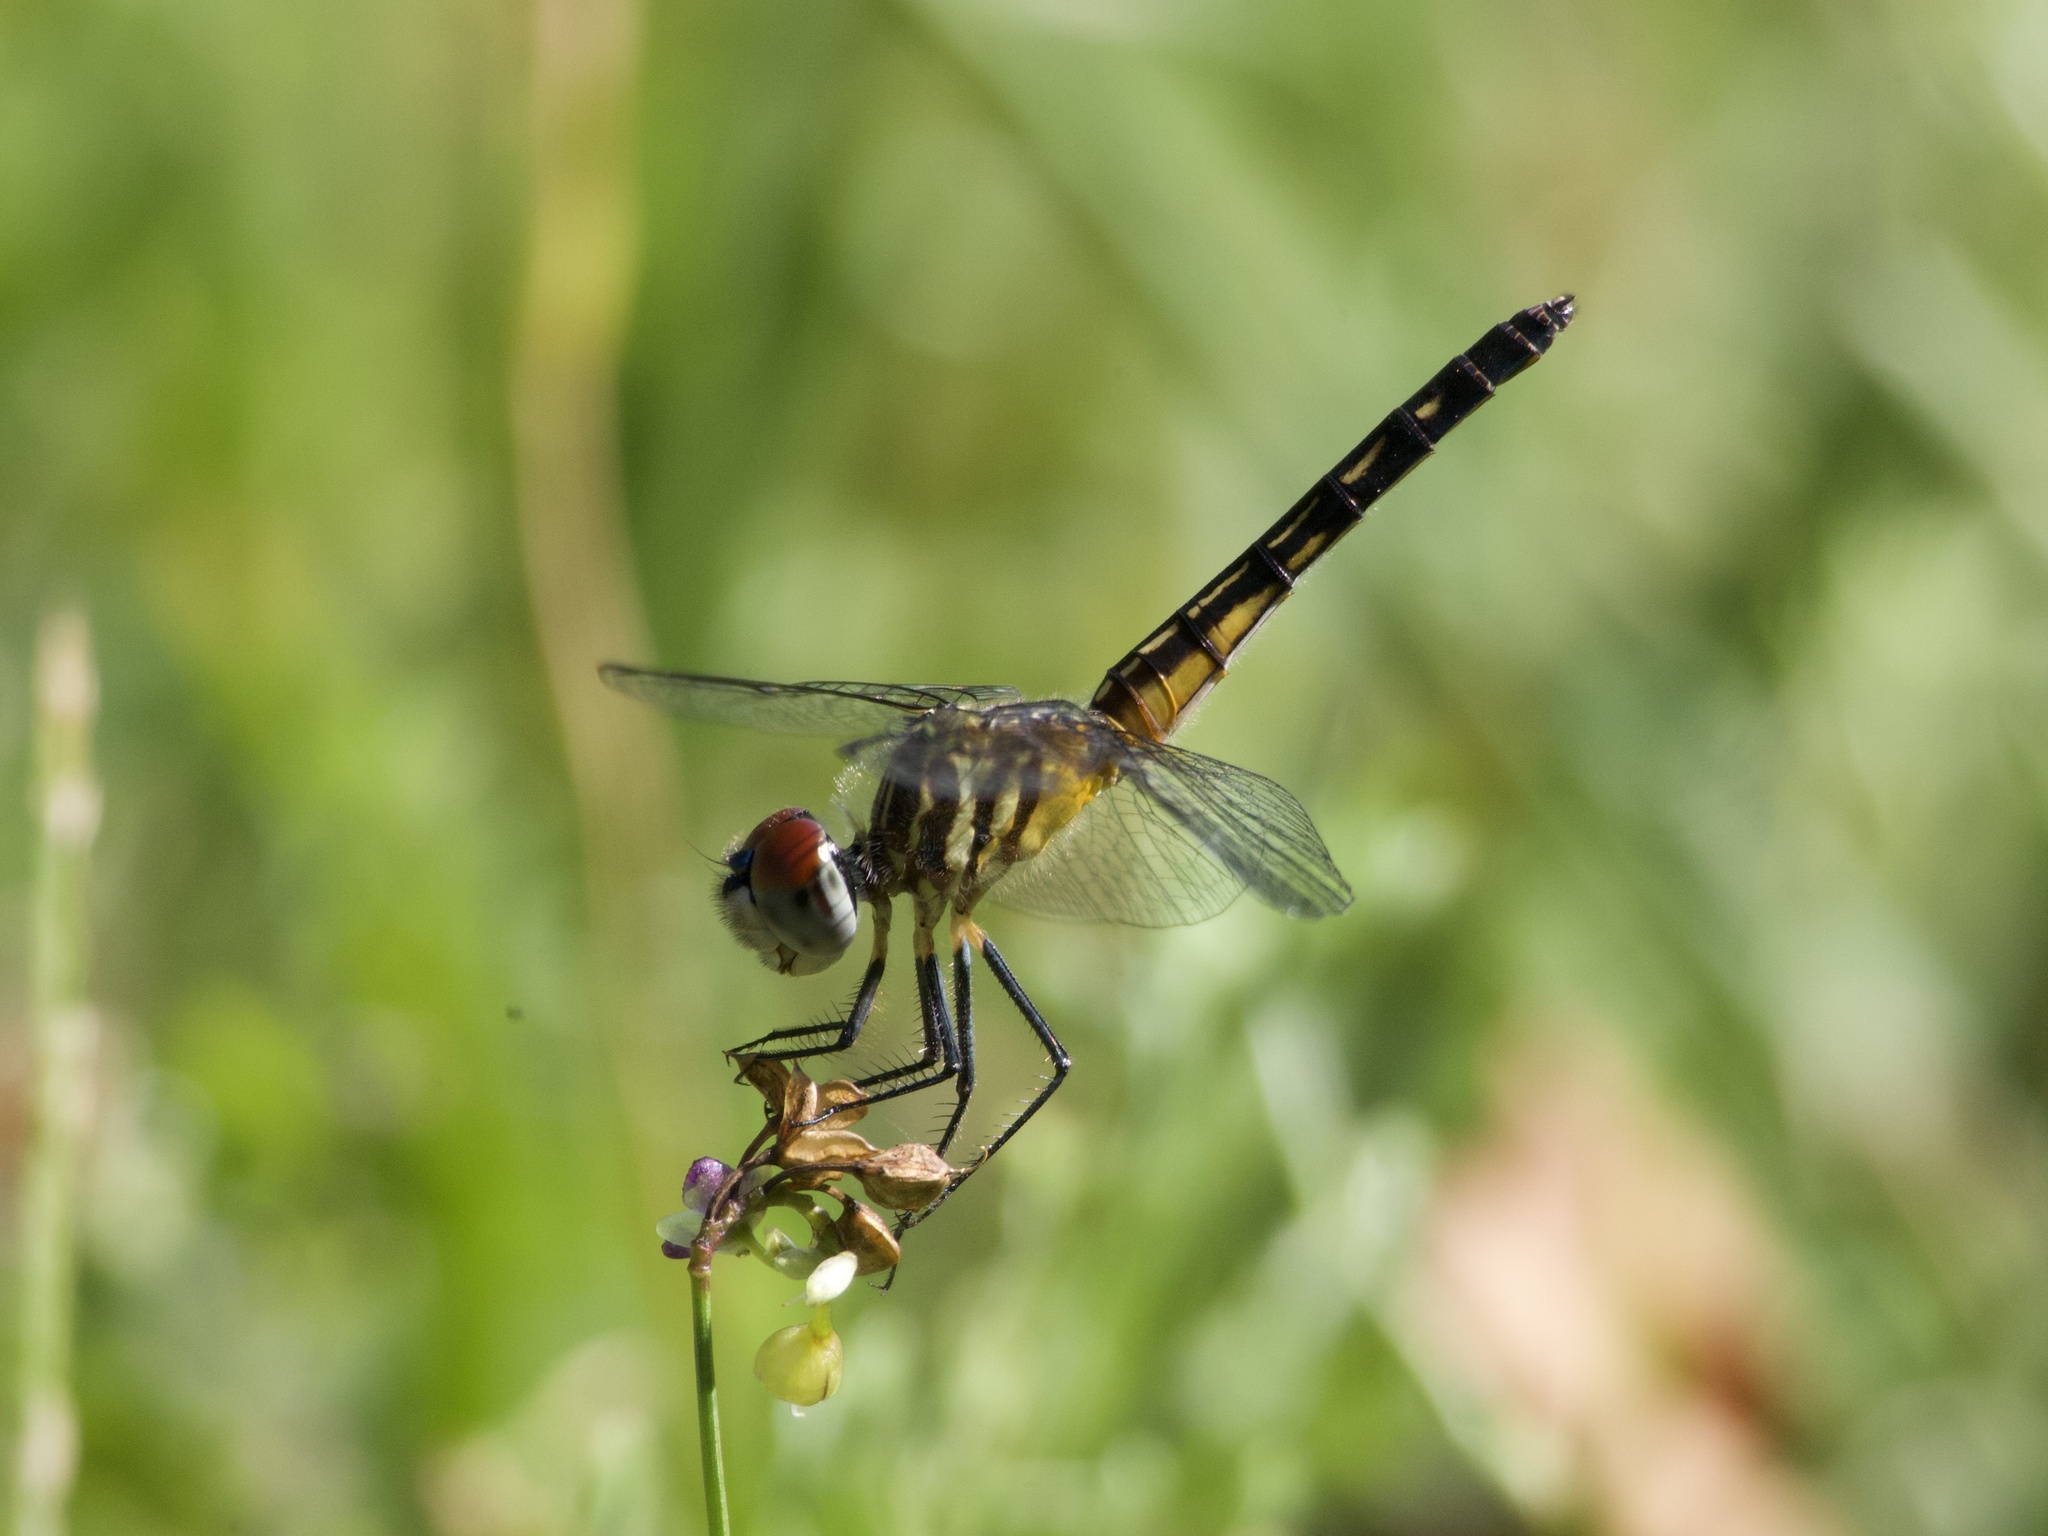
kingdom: Animalia
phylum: Arthropoda
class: Insecta
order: Odonata
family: Libellulidae
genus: Pachydiplax
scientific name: Pachydiplax longipennis
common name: Blue dasher
